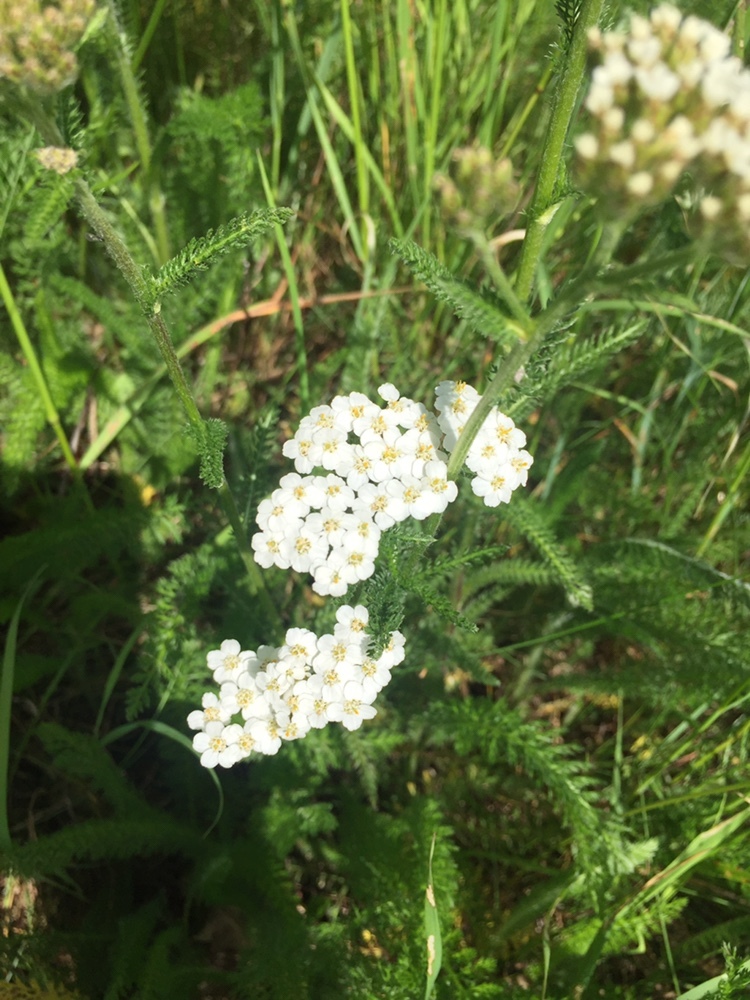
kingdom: Plantae
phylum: Tracheophyta
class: Magnoliopsida
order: Asterales
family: Asteraceae
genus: Achillea
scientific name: Achillea millefolium
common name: Yarrow
